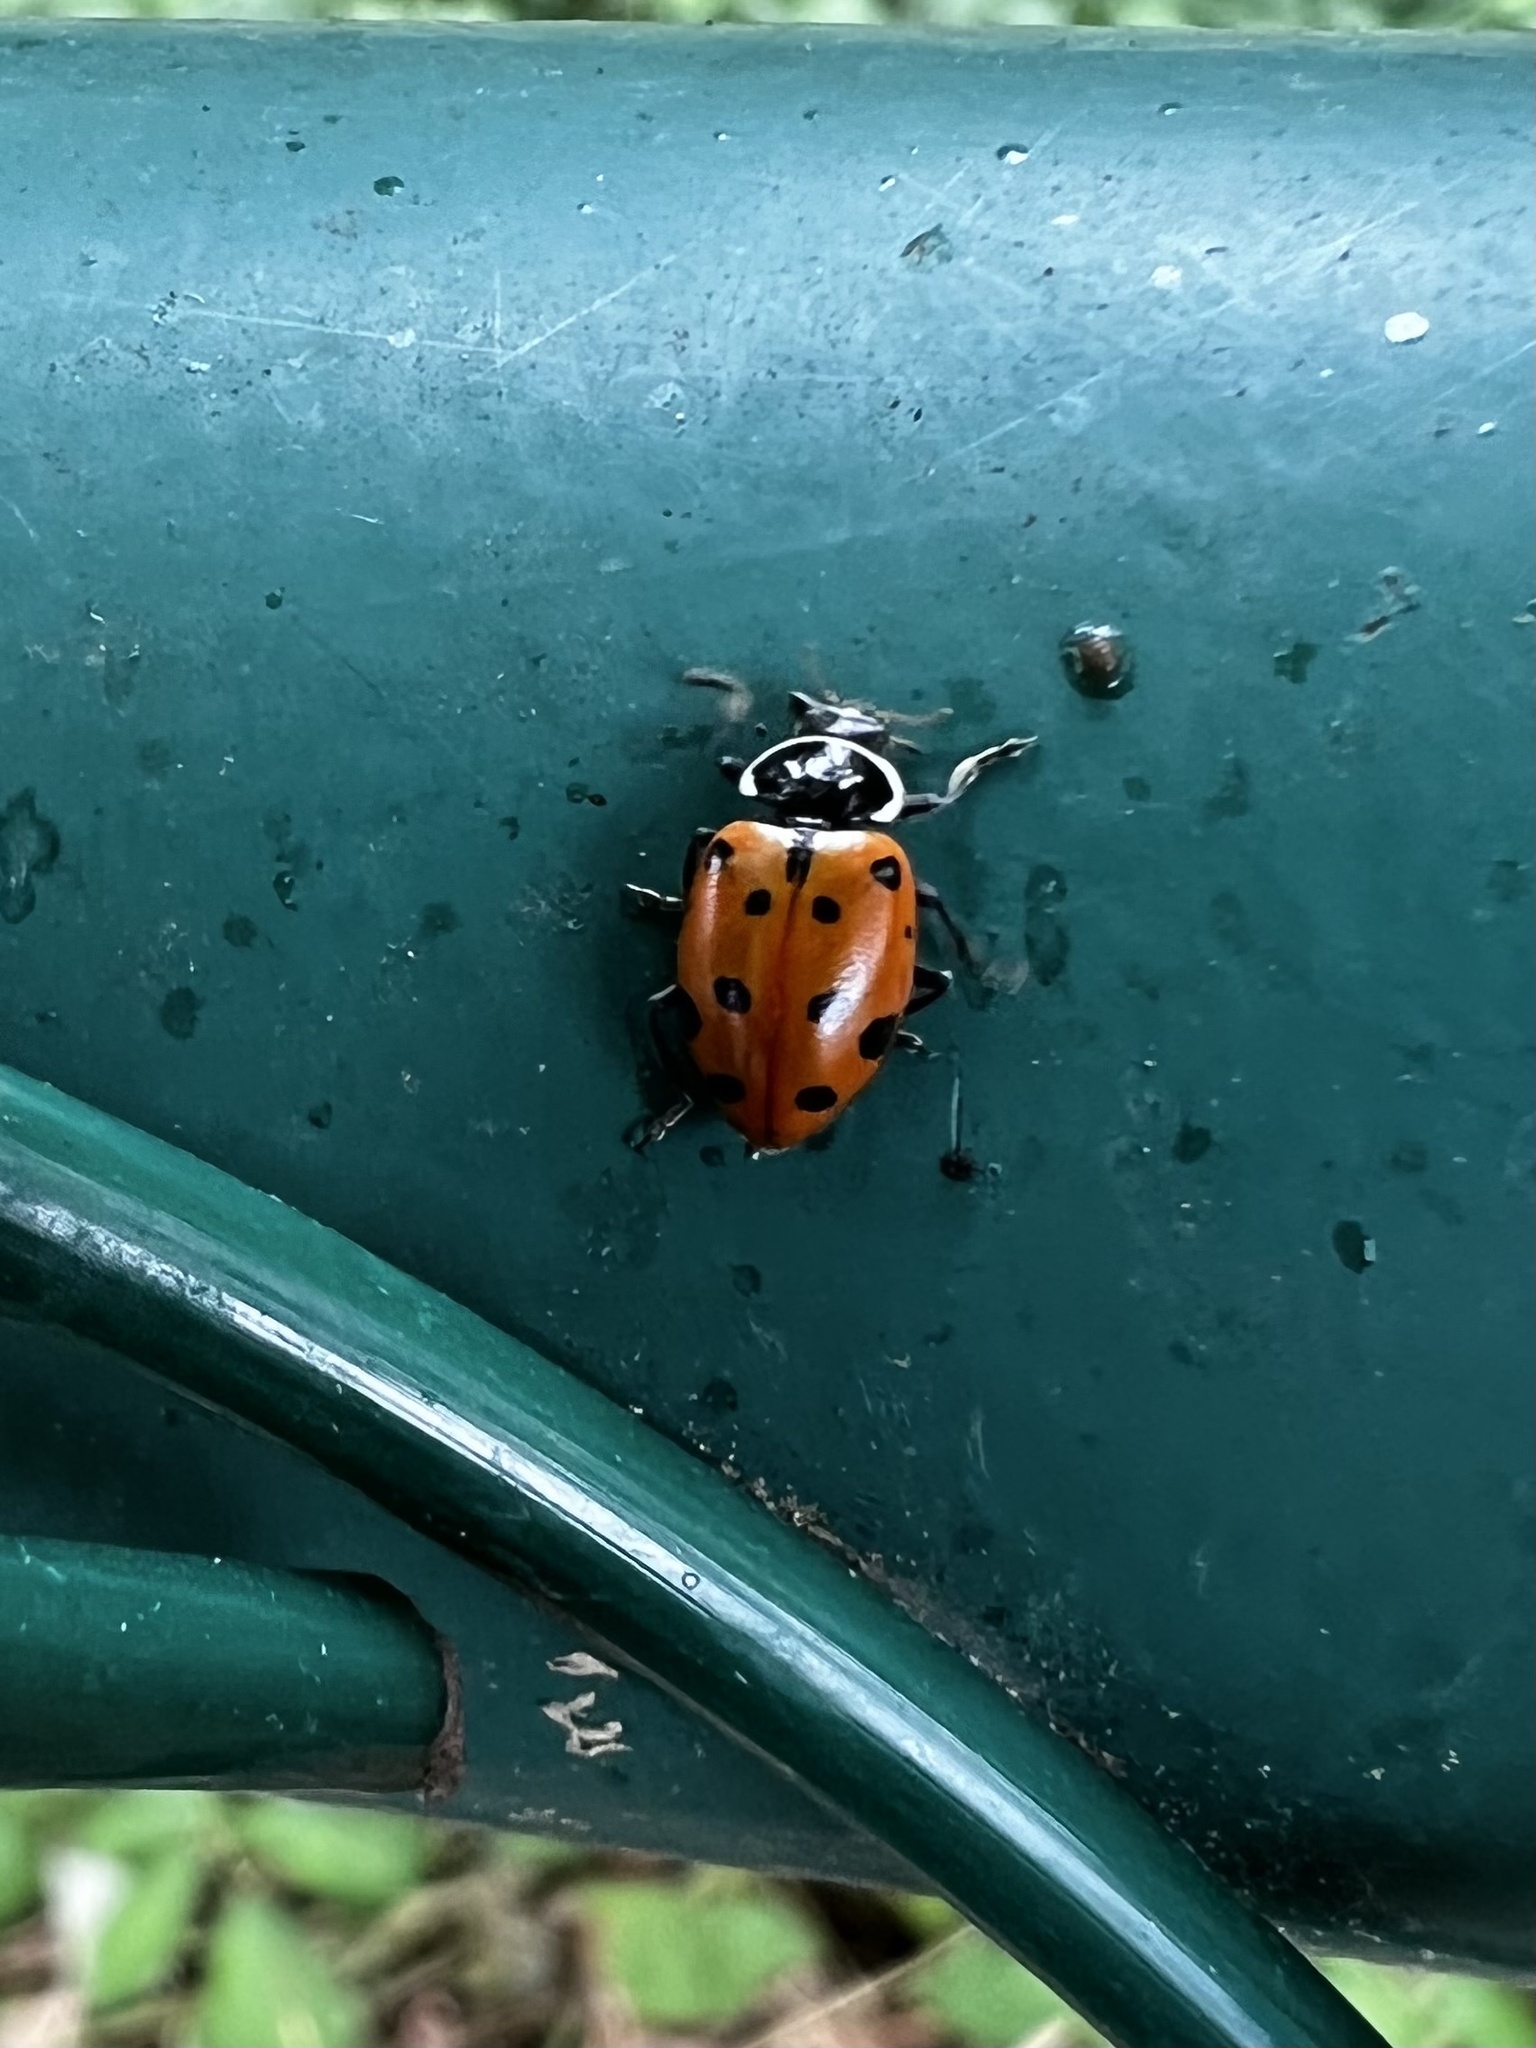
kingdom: Animalia
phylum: Arthropoda
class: Insecta
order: Coleoptera
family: Coccinellidae
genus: Hippodamia
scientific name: Hippodamia convergens
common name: Convergent lady beetle
